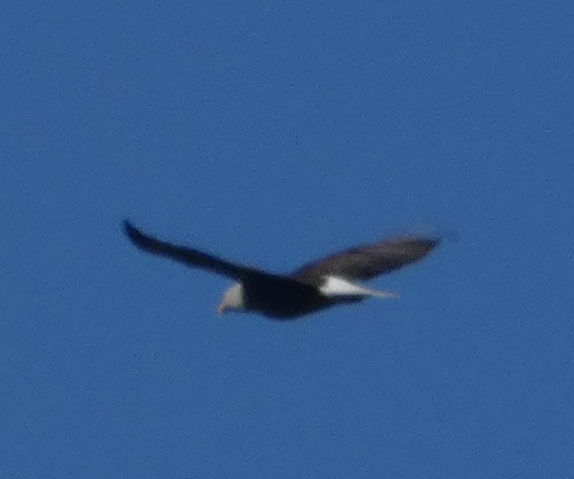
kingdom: Animalia
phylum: Chordata
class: Aves
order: Accipitriformes
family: Accipitridae
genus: Haliaeetus
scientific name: Haliaeetus leucocephalus
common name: Bald eagle
